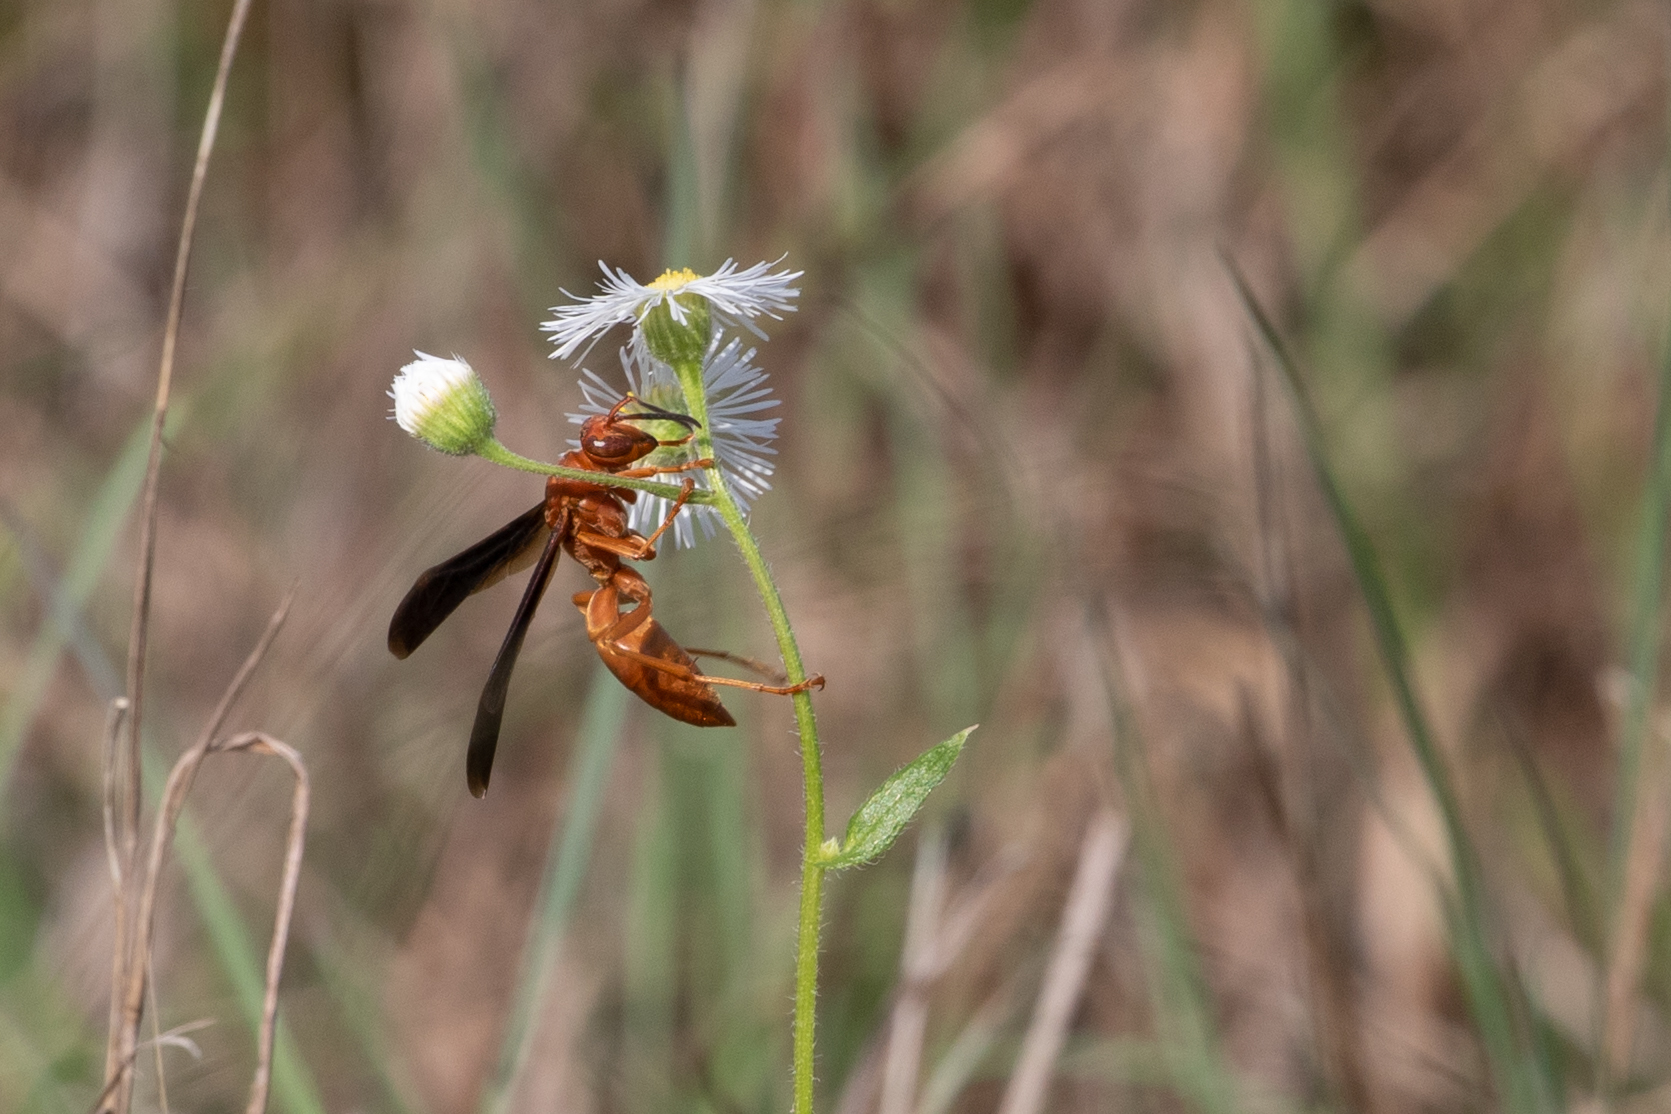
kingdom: Animalia
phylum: Arthropoda
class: Insecta
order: Hymenoptera
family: Eumenidae
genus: Polistes
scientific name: Polistes carolina
